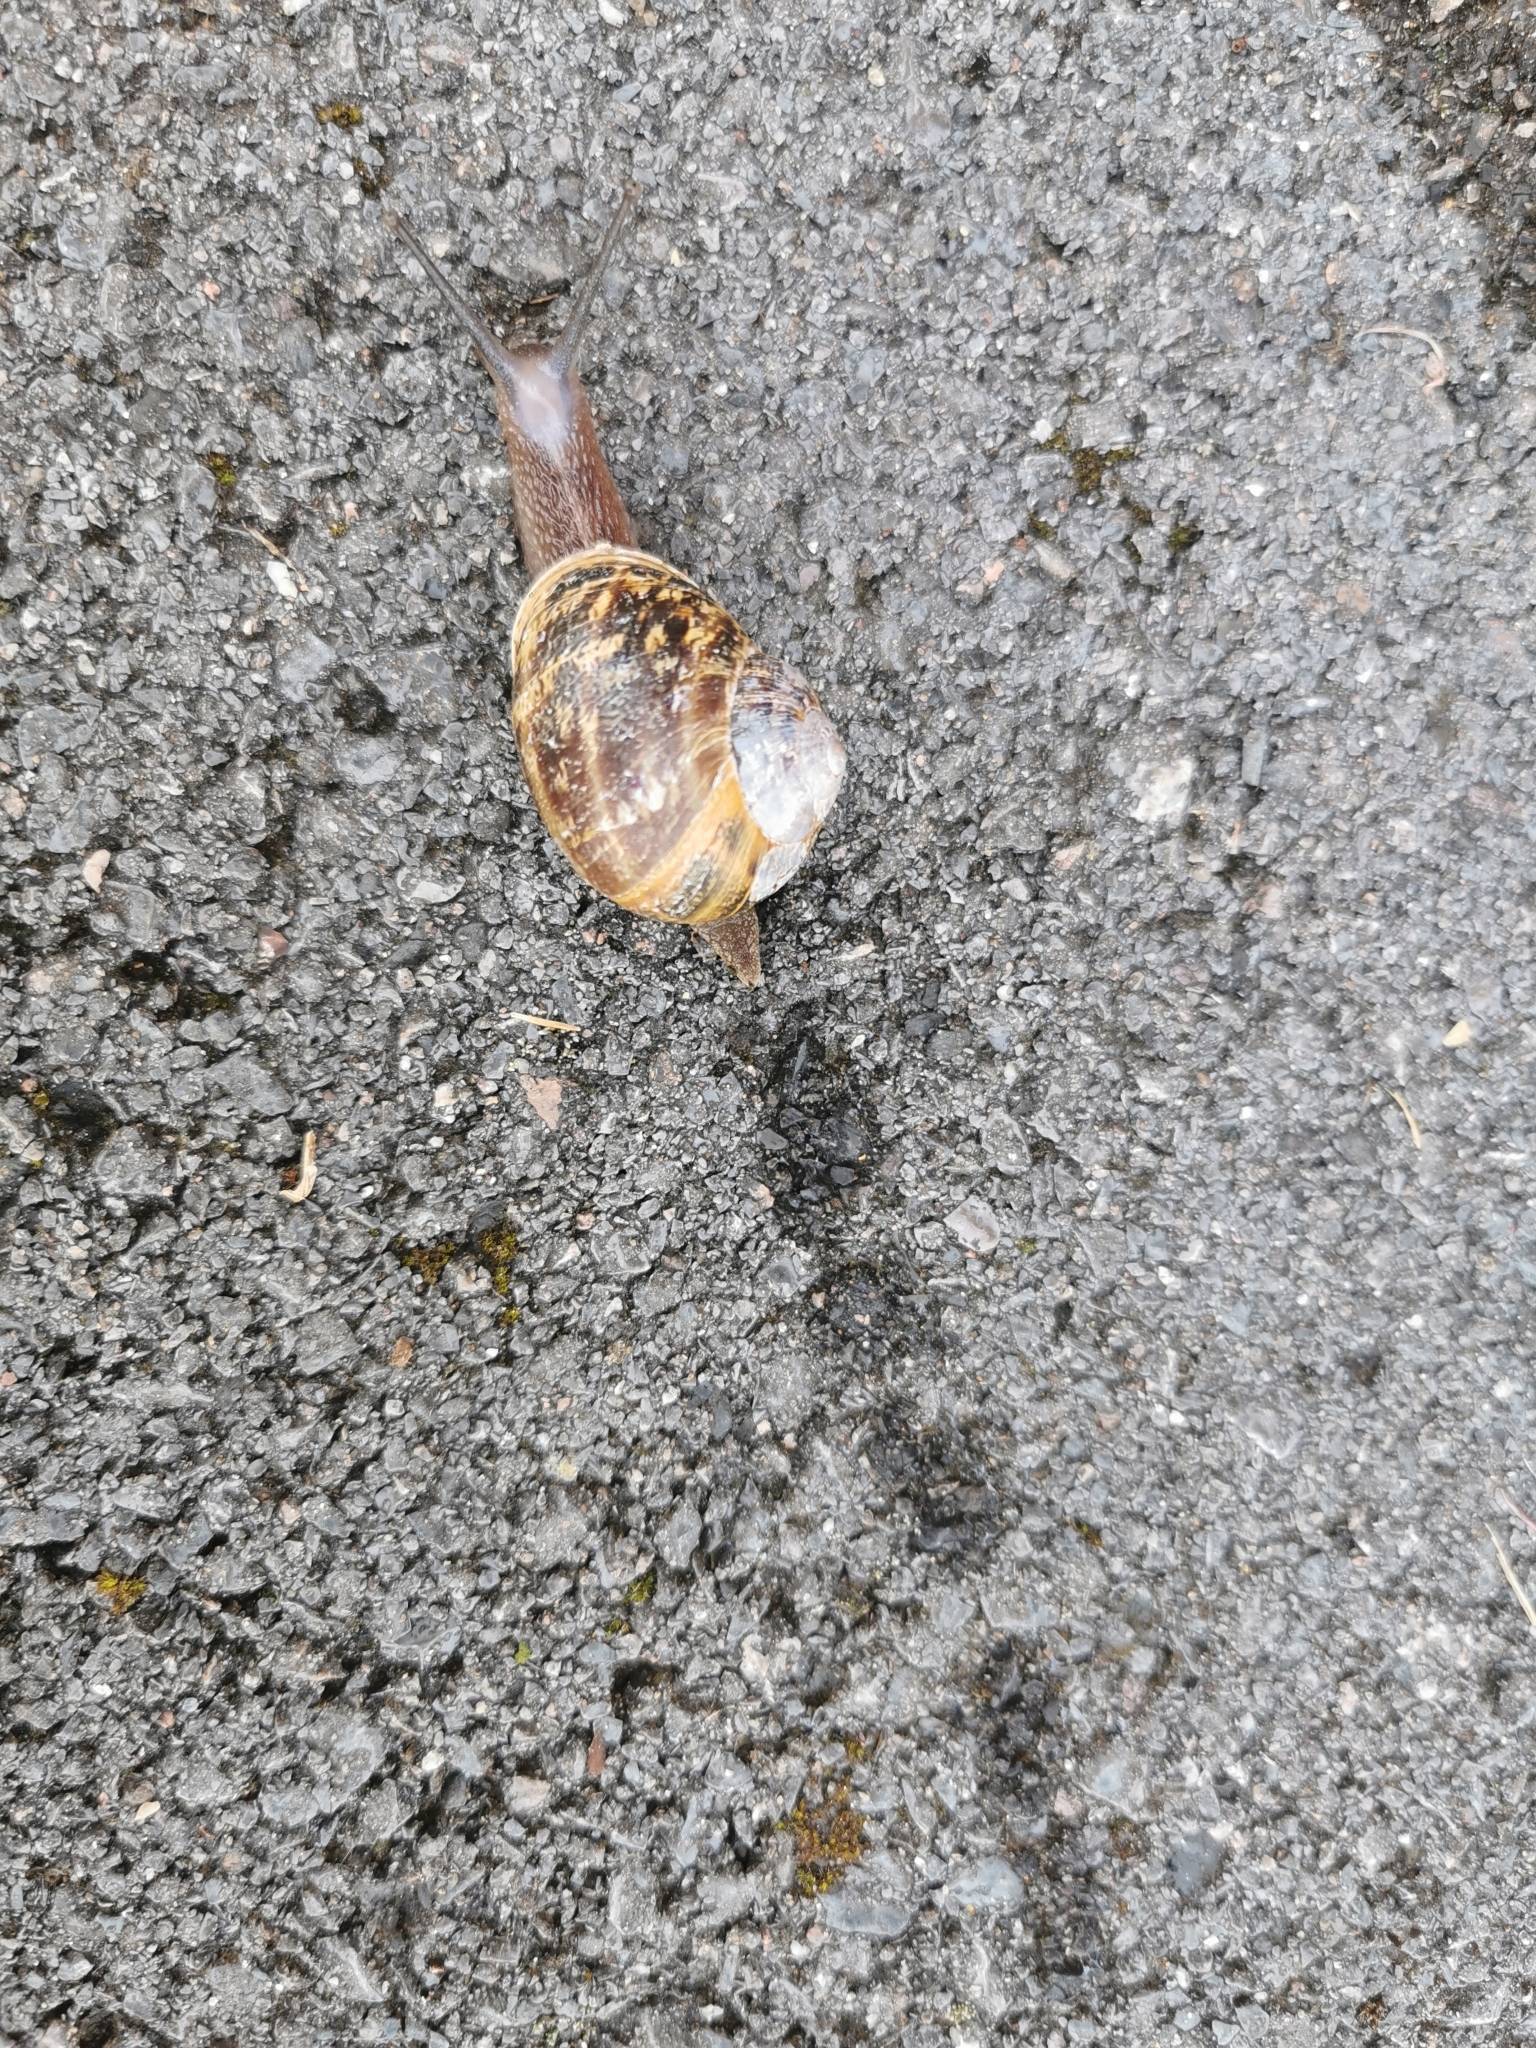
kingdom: Animalia
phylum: Mollusca
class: Gastropoda
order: Stylommatophora
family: Helicidae
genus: Cornu
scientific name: Cornu aspersum
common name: Brown garden snail
